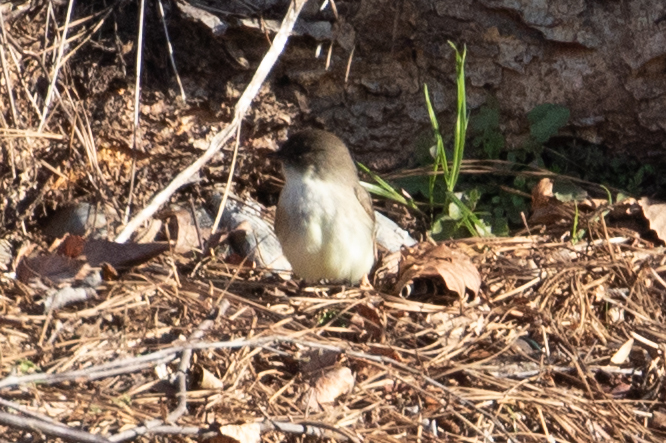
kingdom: Animalia
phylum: Chordata
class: Aves
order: Passeriformes
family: Tyrannidae
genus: Sayornis
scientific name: Sayornis phoebe
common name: Eastern phoebe
